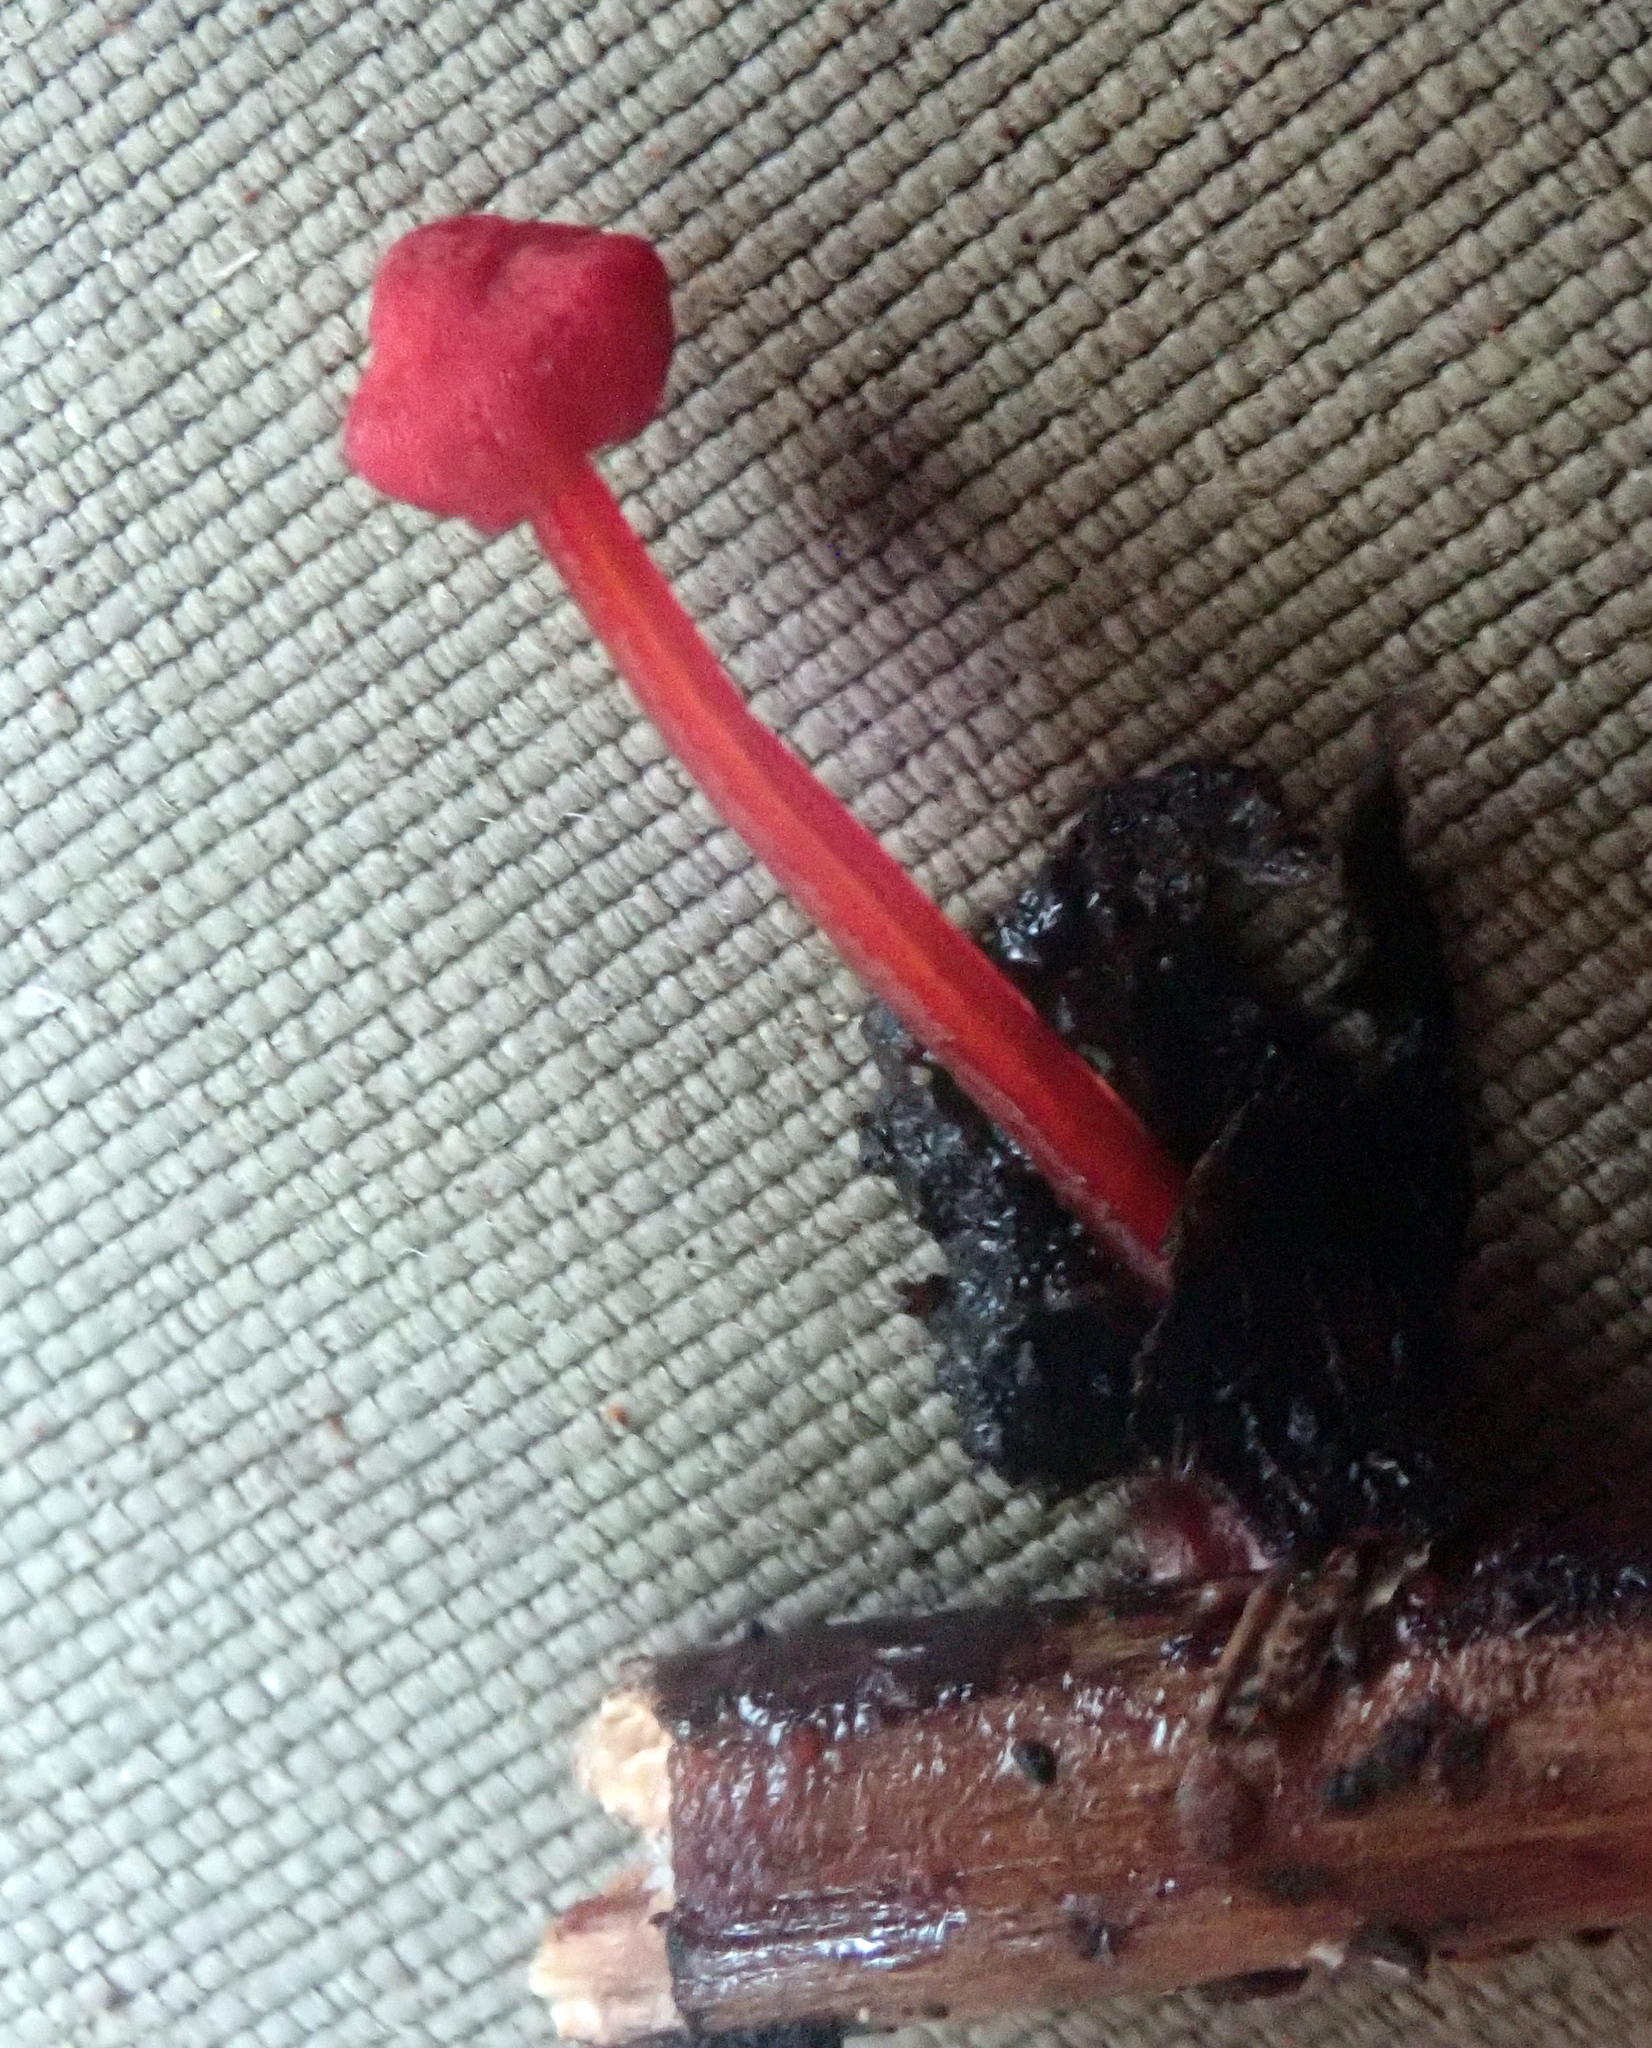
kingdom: Fungi
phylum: Basidiomycota
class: Agaricomycetes
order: Agaricales
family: Mycenaceae
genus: Cruentomycena
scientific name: Cruentomycena viscidocruenta
